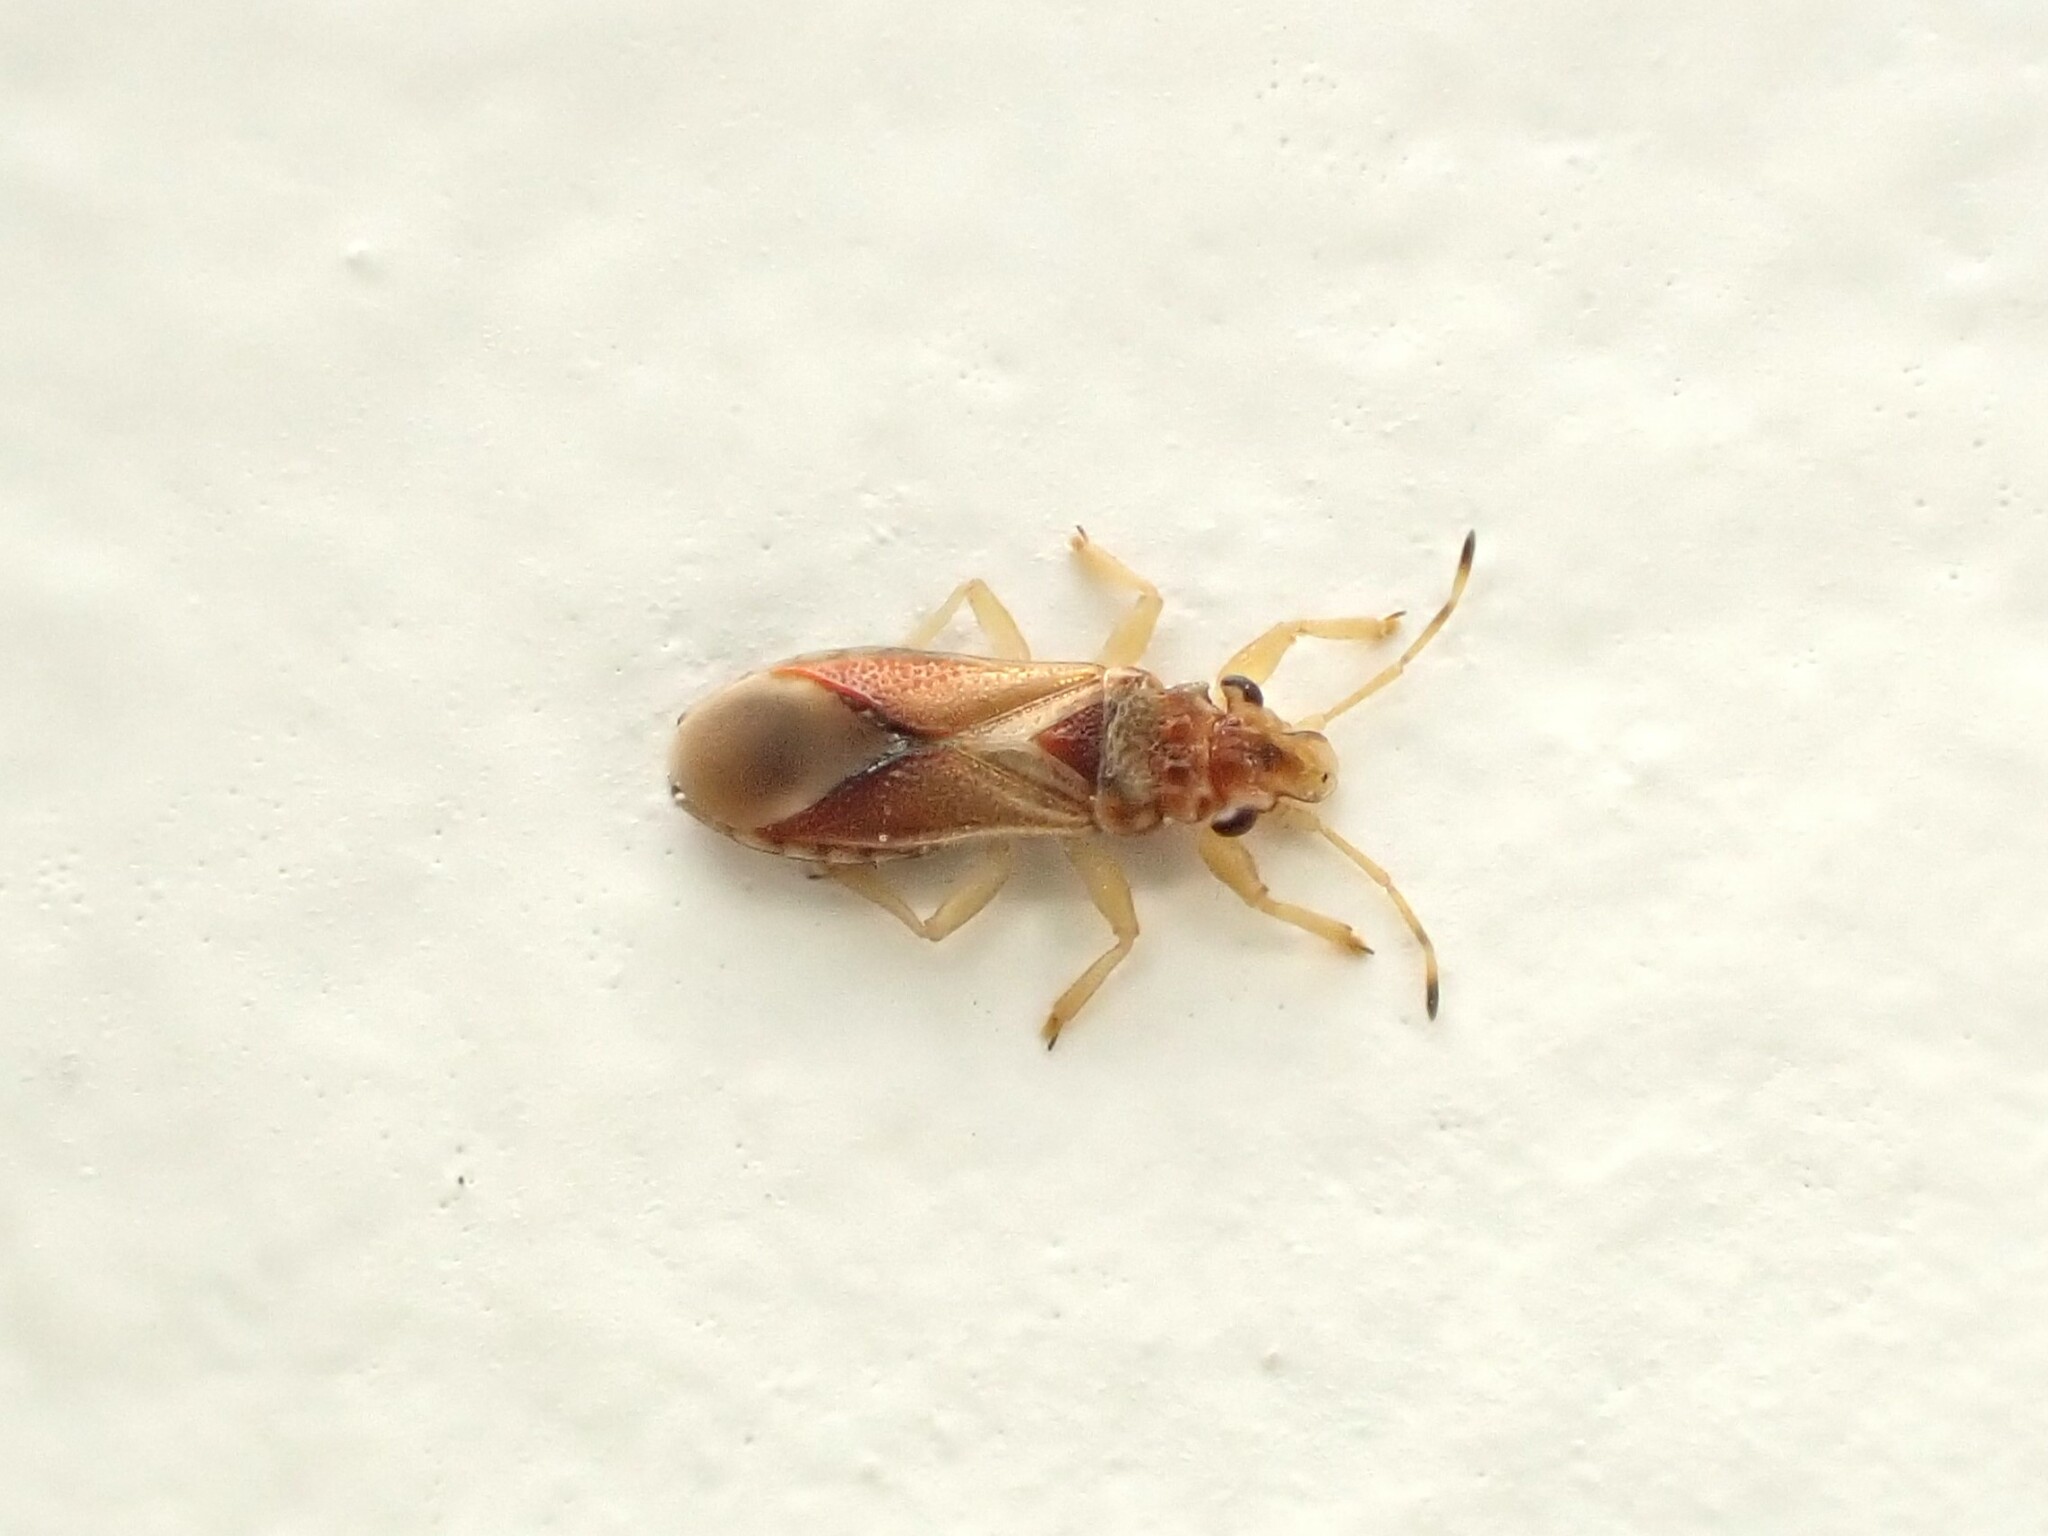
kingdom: Animalia
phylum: Arthropoda
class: Insecta
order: Hemiptera
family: Thaumastocoridae
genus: Thaumastocoris
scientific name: Thaumastocoris peregrinus
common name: Bronze bug
